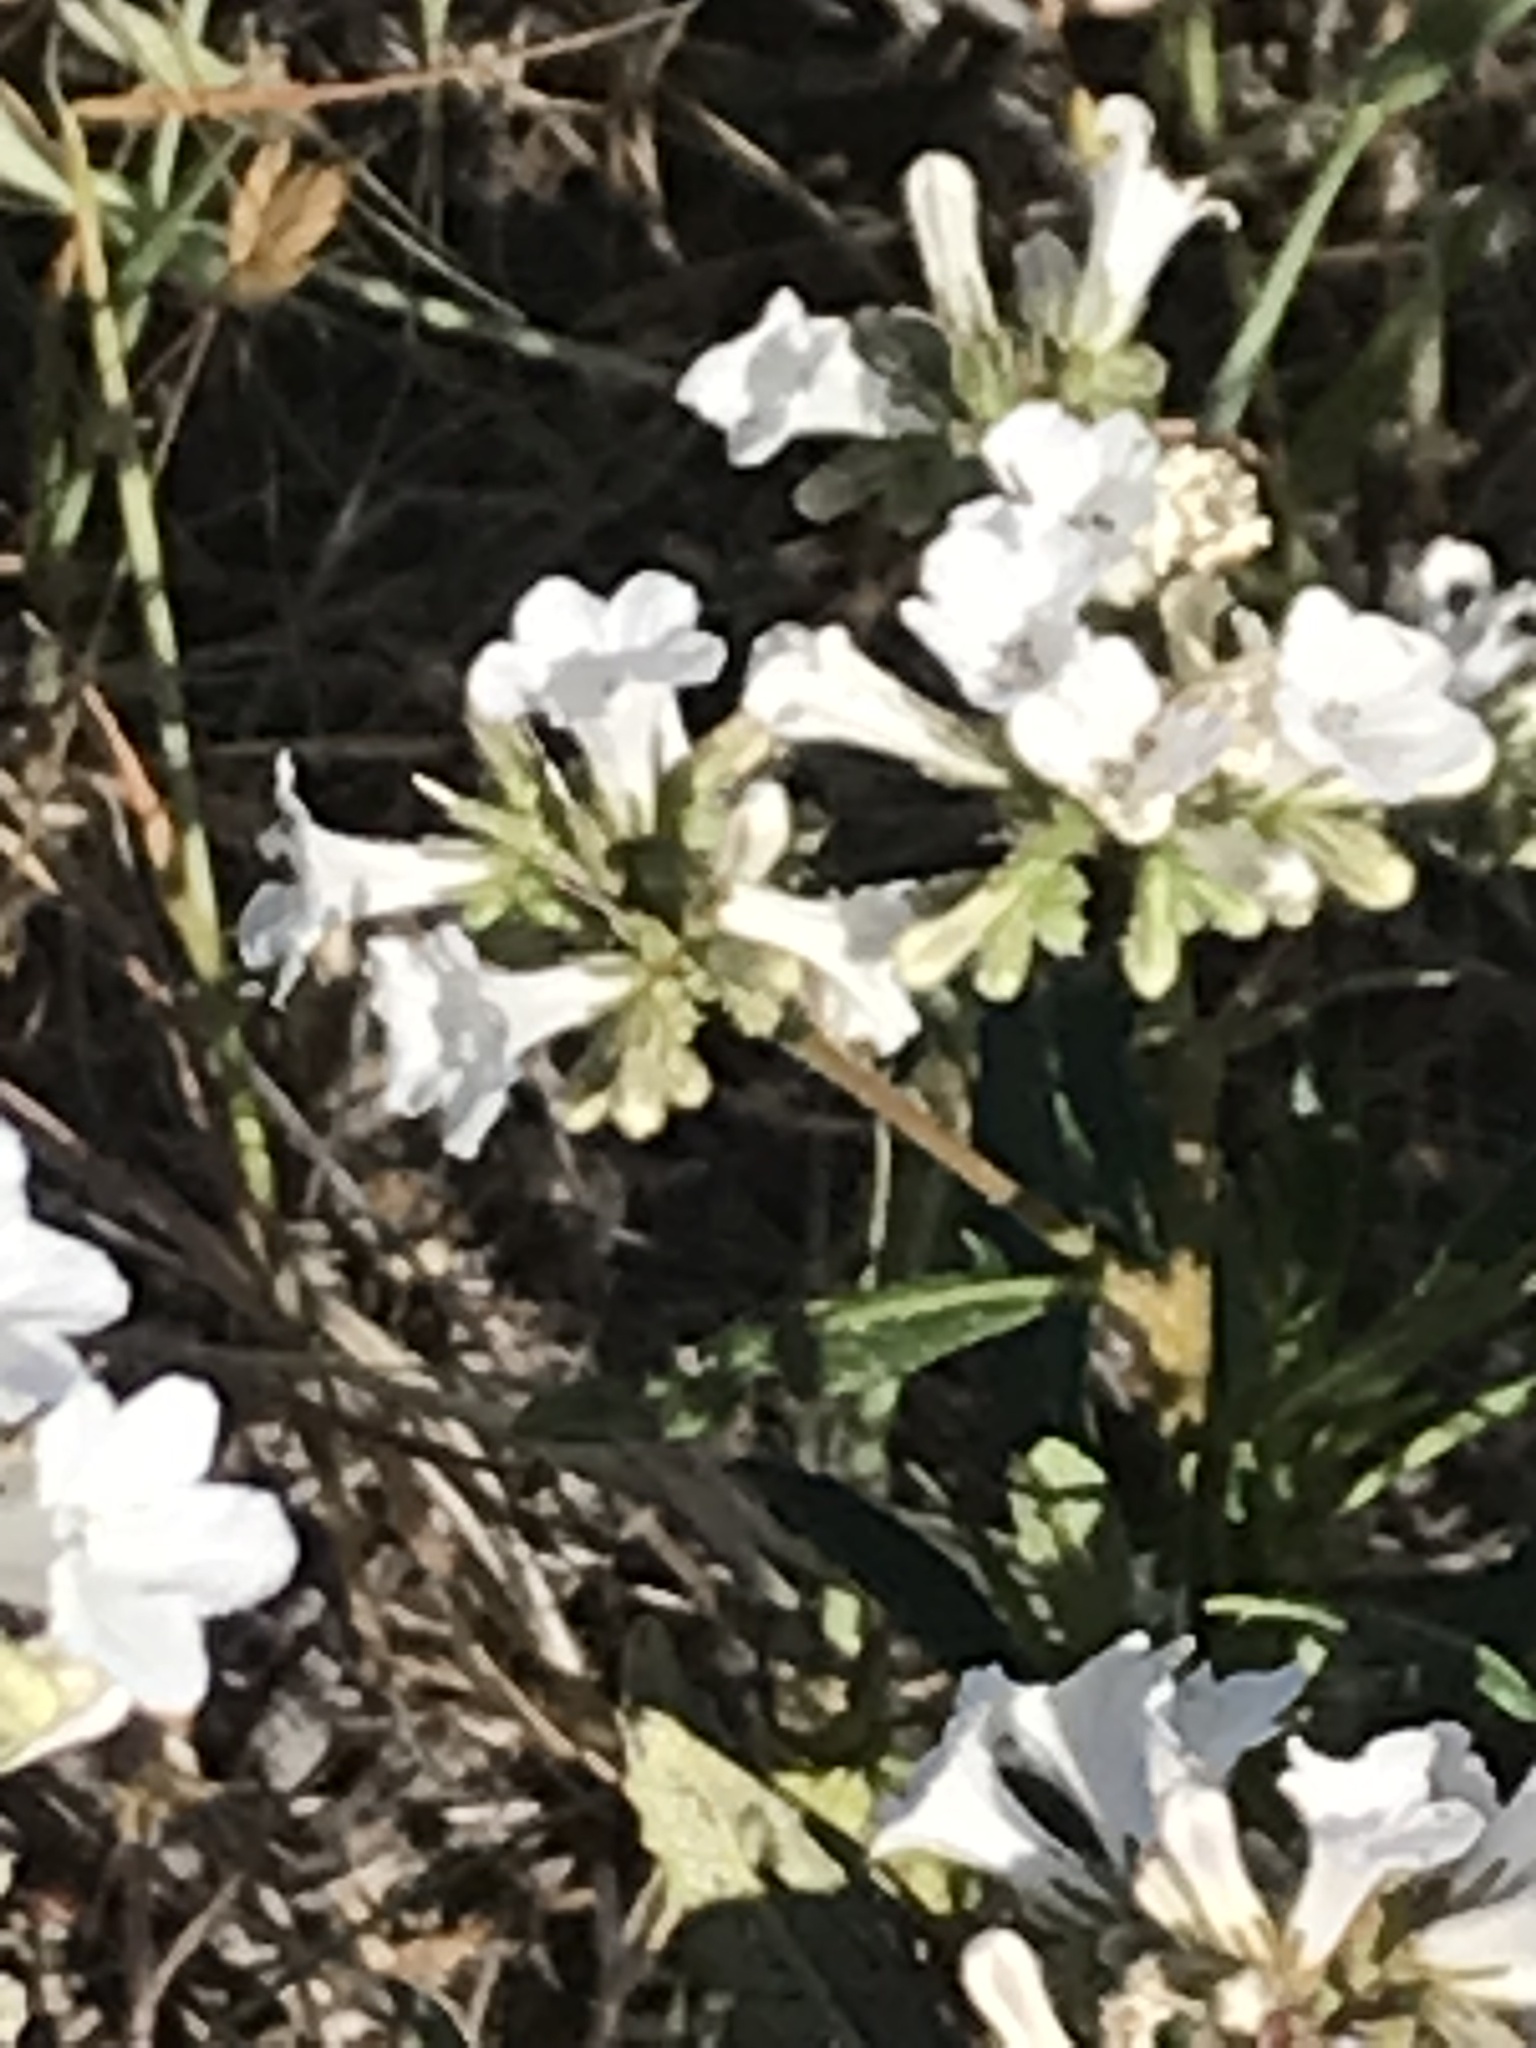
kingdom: Plantae
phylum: Tracheophyta
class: Magnoliopsida
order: Boraginales
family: Namaceae
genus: Eriodictyon
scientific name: Eriodictyon californicum
